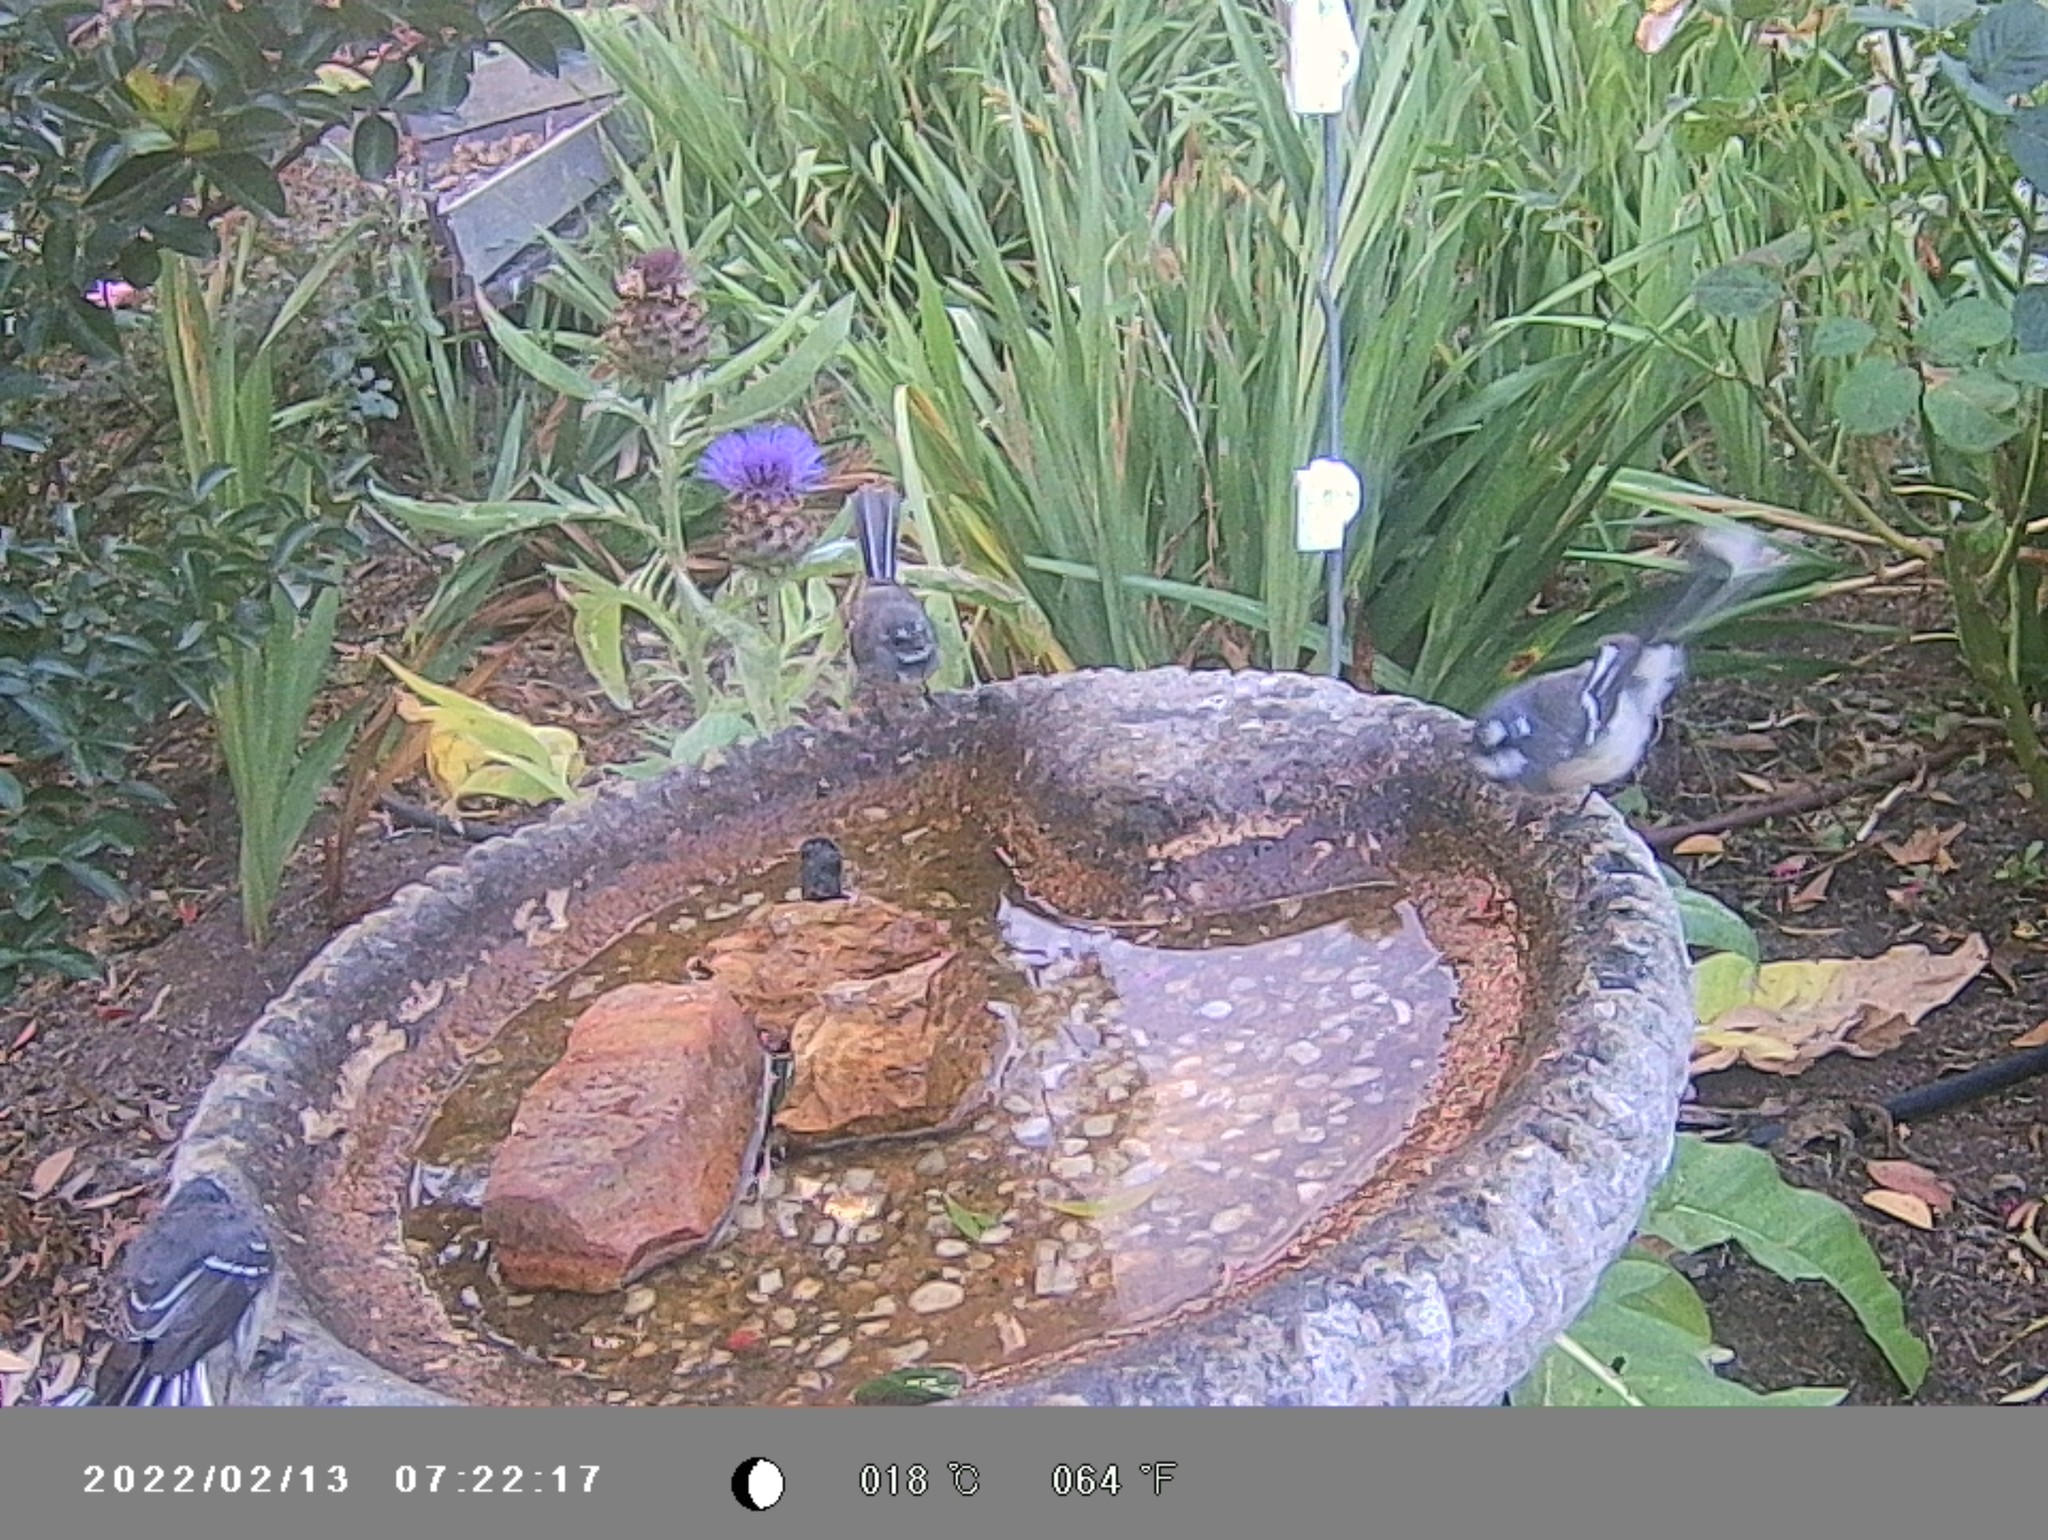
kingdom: Animalia
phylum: Chordata
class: Aves
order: Passeriformes
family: Rhipiduridae
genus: Rhipidura
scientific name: Rhipidura albiscapa
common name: Grey fantail
